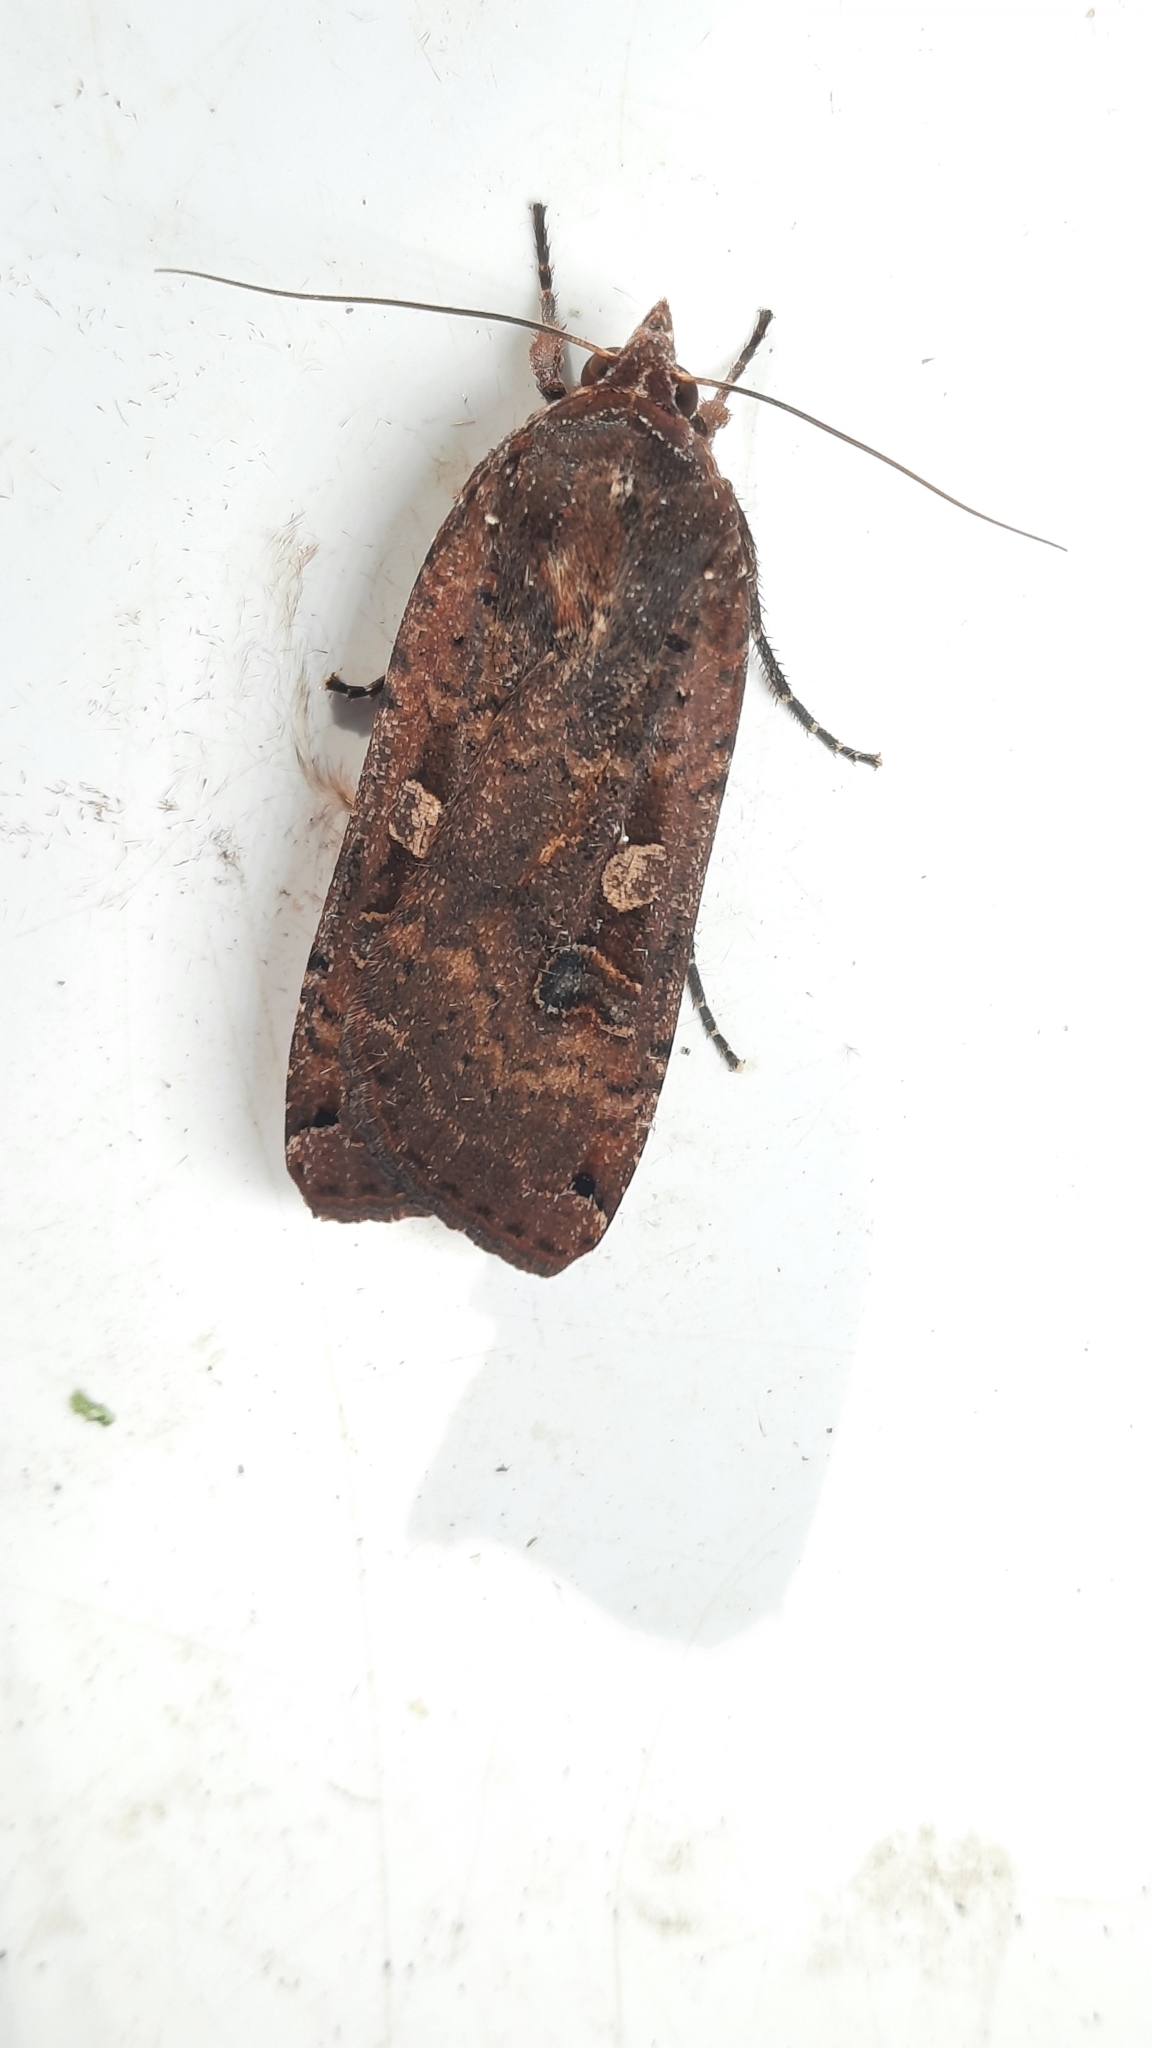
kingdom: Animalia
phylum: Arthropoda
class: Insecta
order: Lepidoptera
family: Noctuidae
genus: Noctua
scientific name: Noctua pronuba
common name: Large yellow underwing
